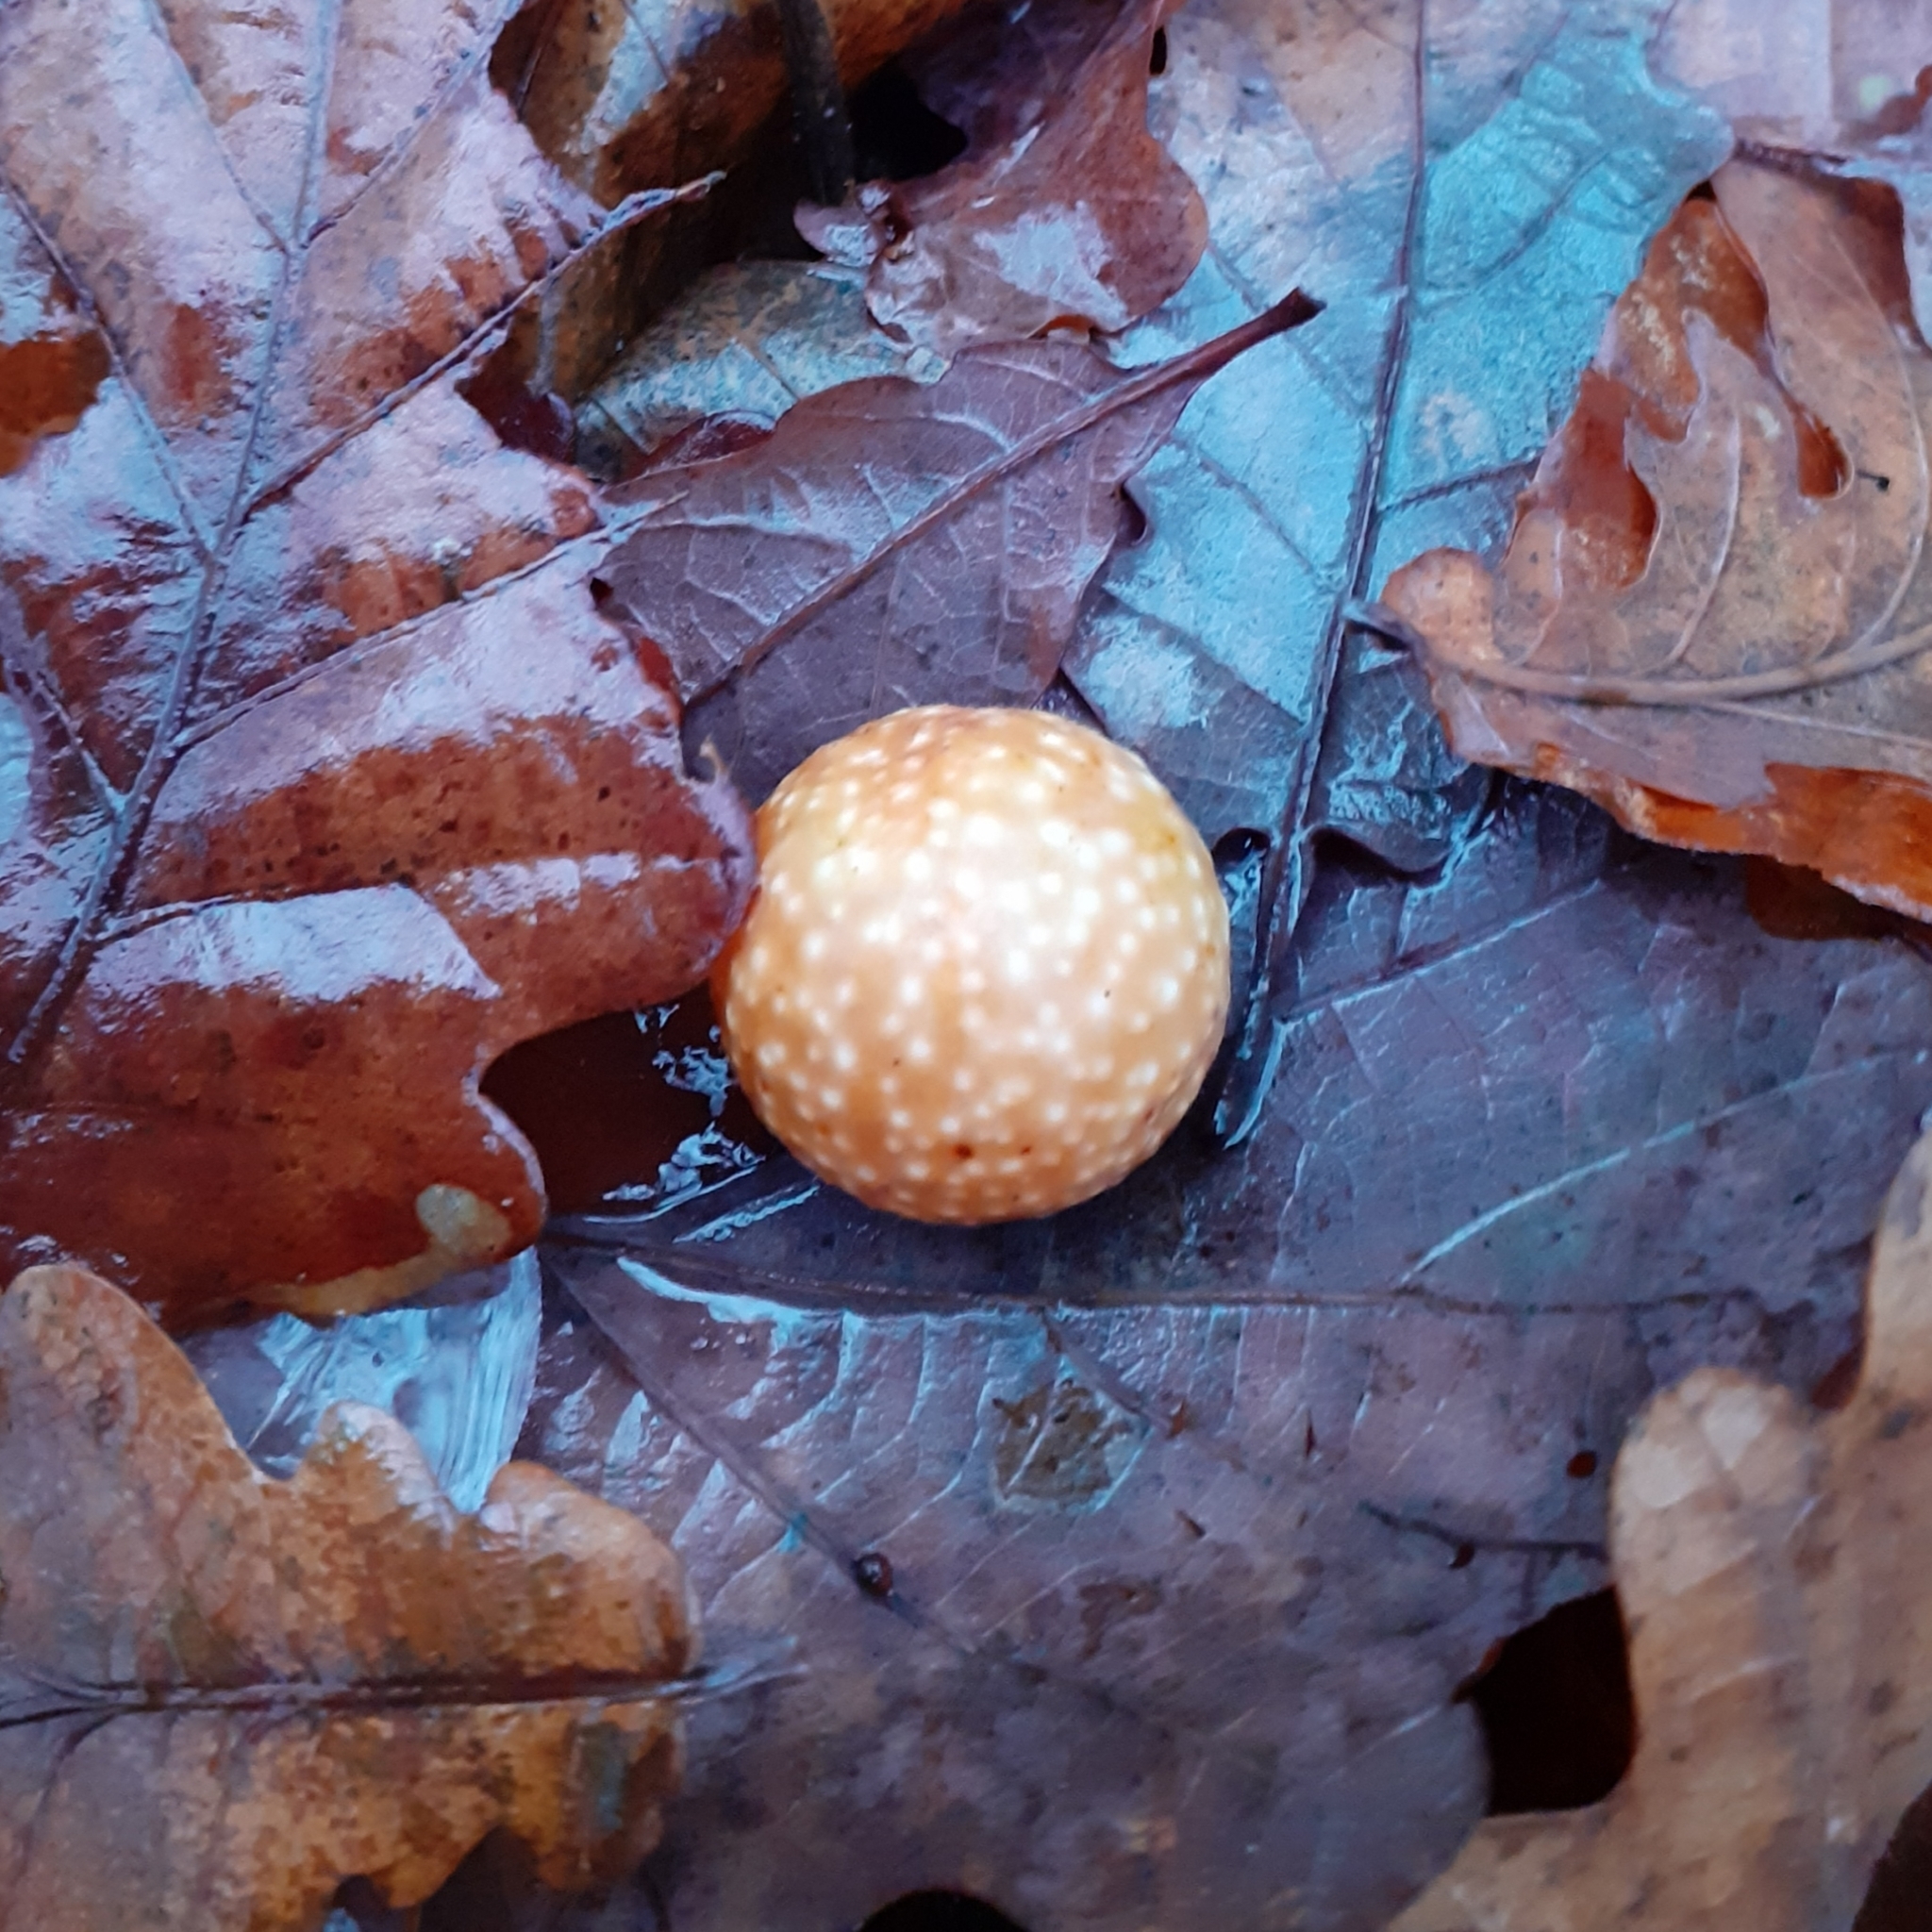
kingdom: Animalia
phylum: Arthropoda
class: Insecta
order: Hymenoptera
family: Cynipidae
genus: Cynips
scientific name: Cynips quercusfolii
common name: Cherry gall
